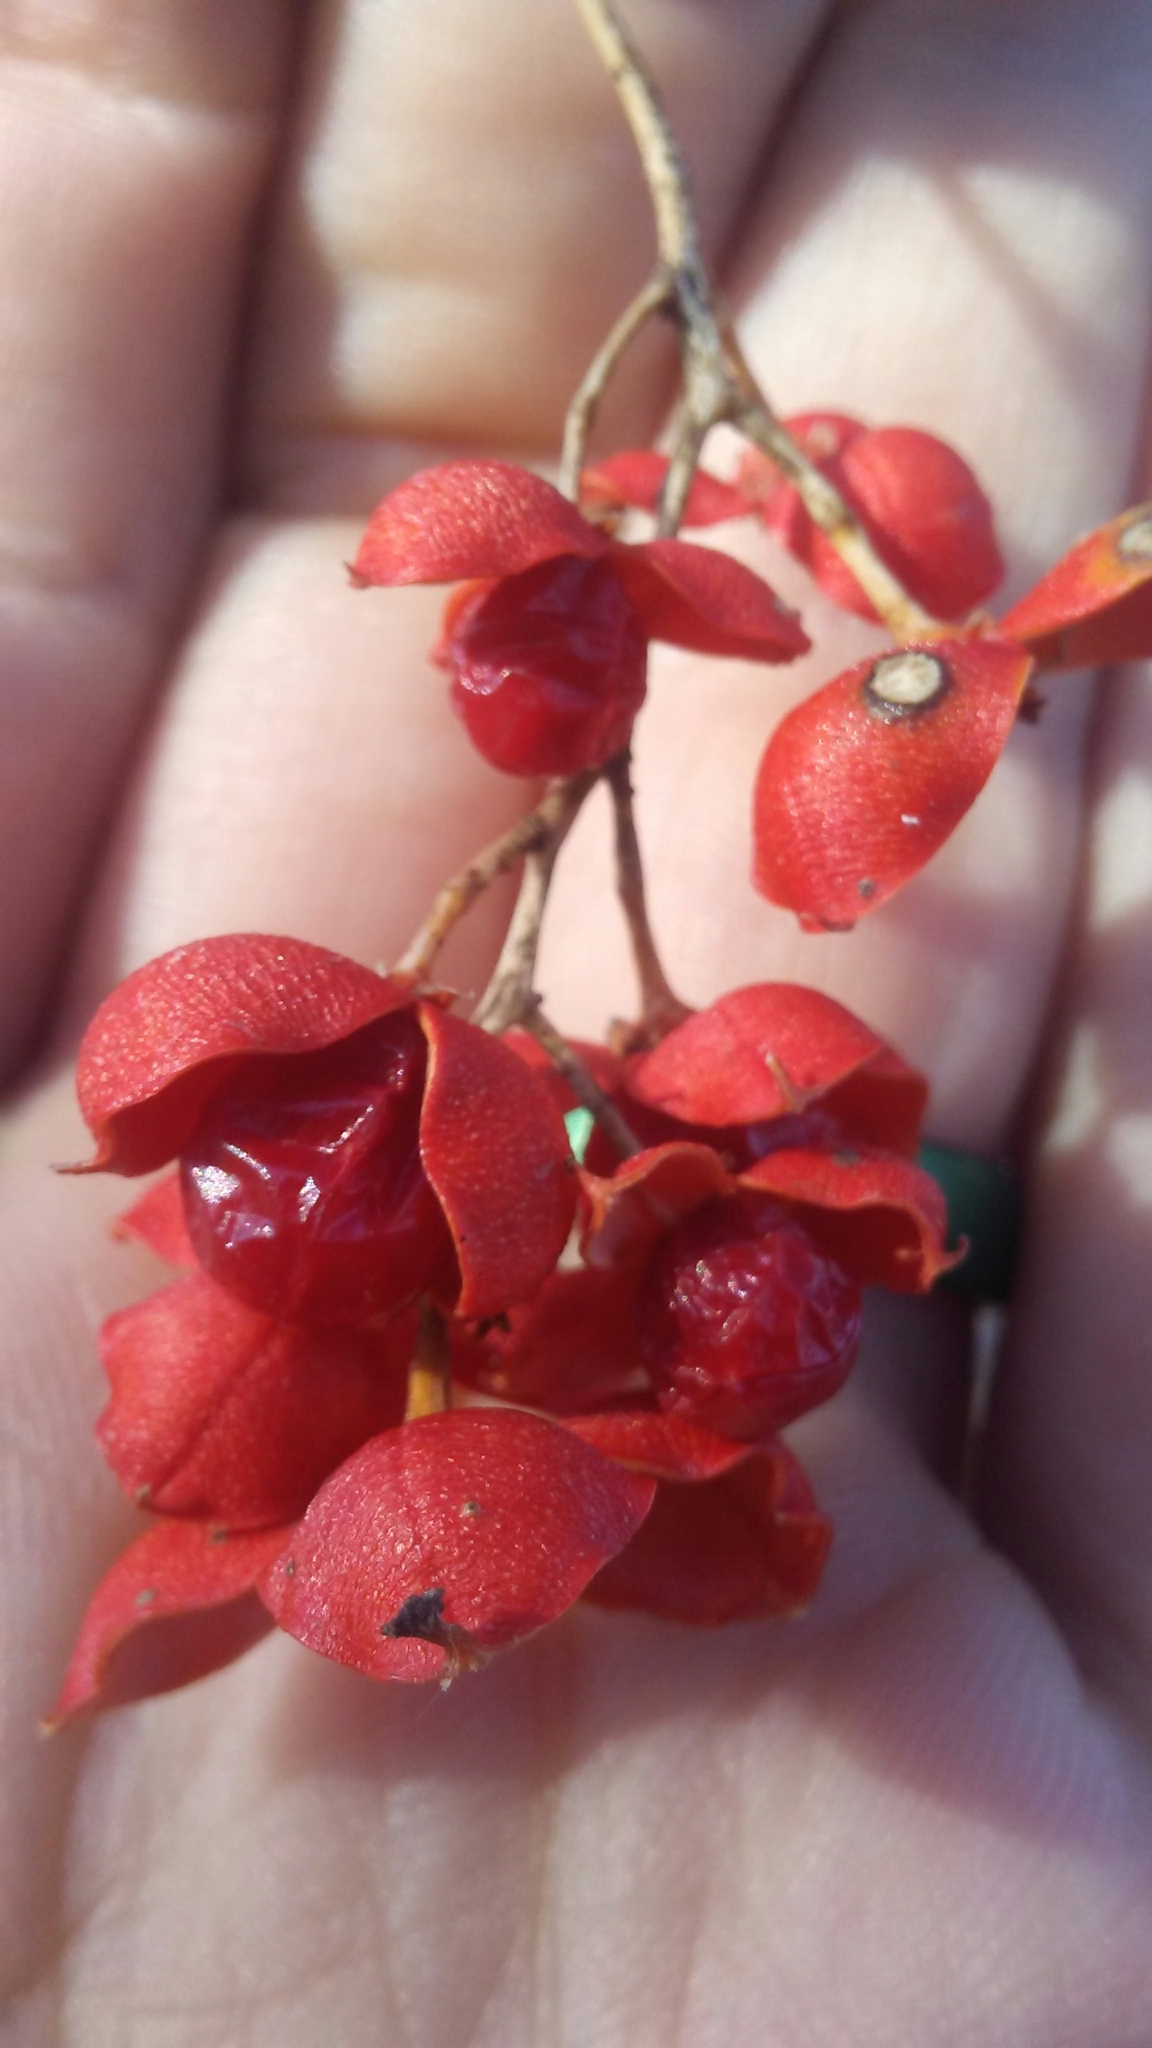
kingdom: Plantae
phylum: Tracheophyta
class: Magnoliopsida
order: Celastrales
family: Celastraceae
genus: Celastrus
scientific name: Celastrus scandens
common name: American bittersweet
